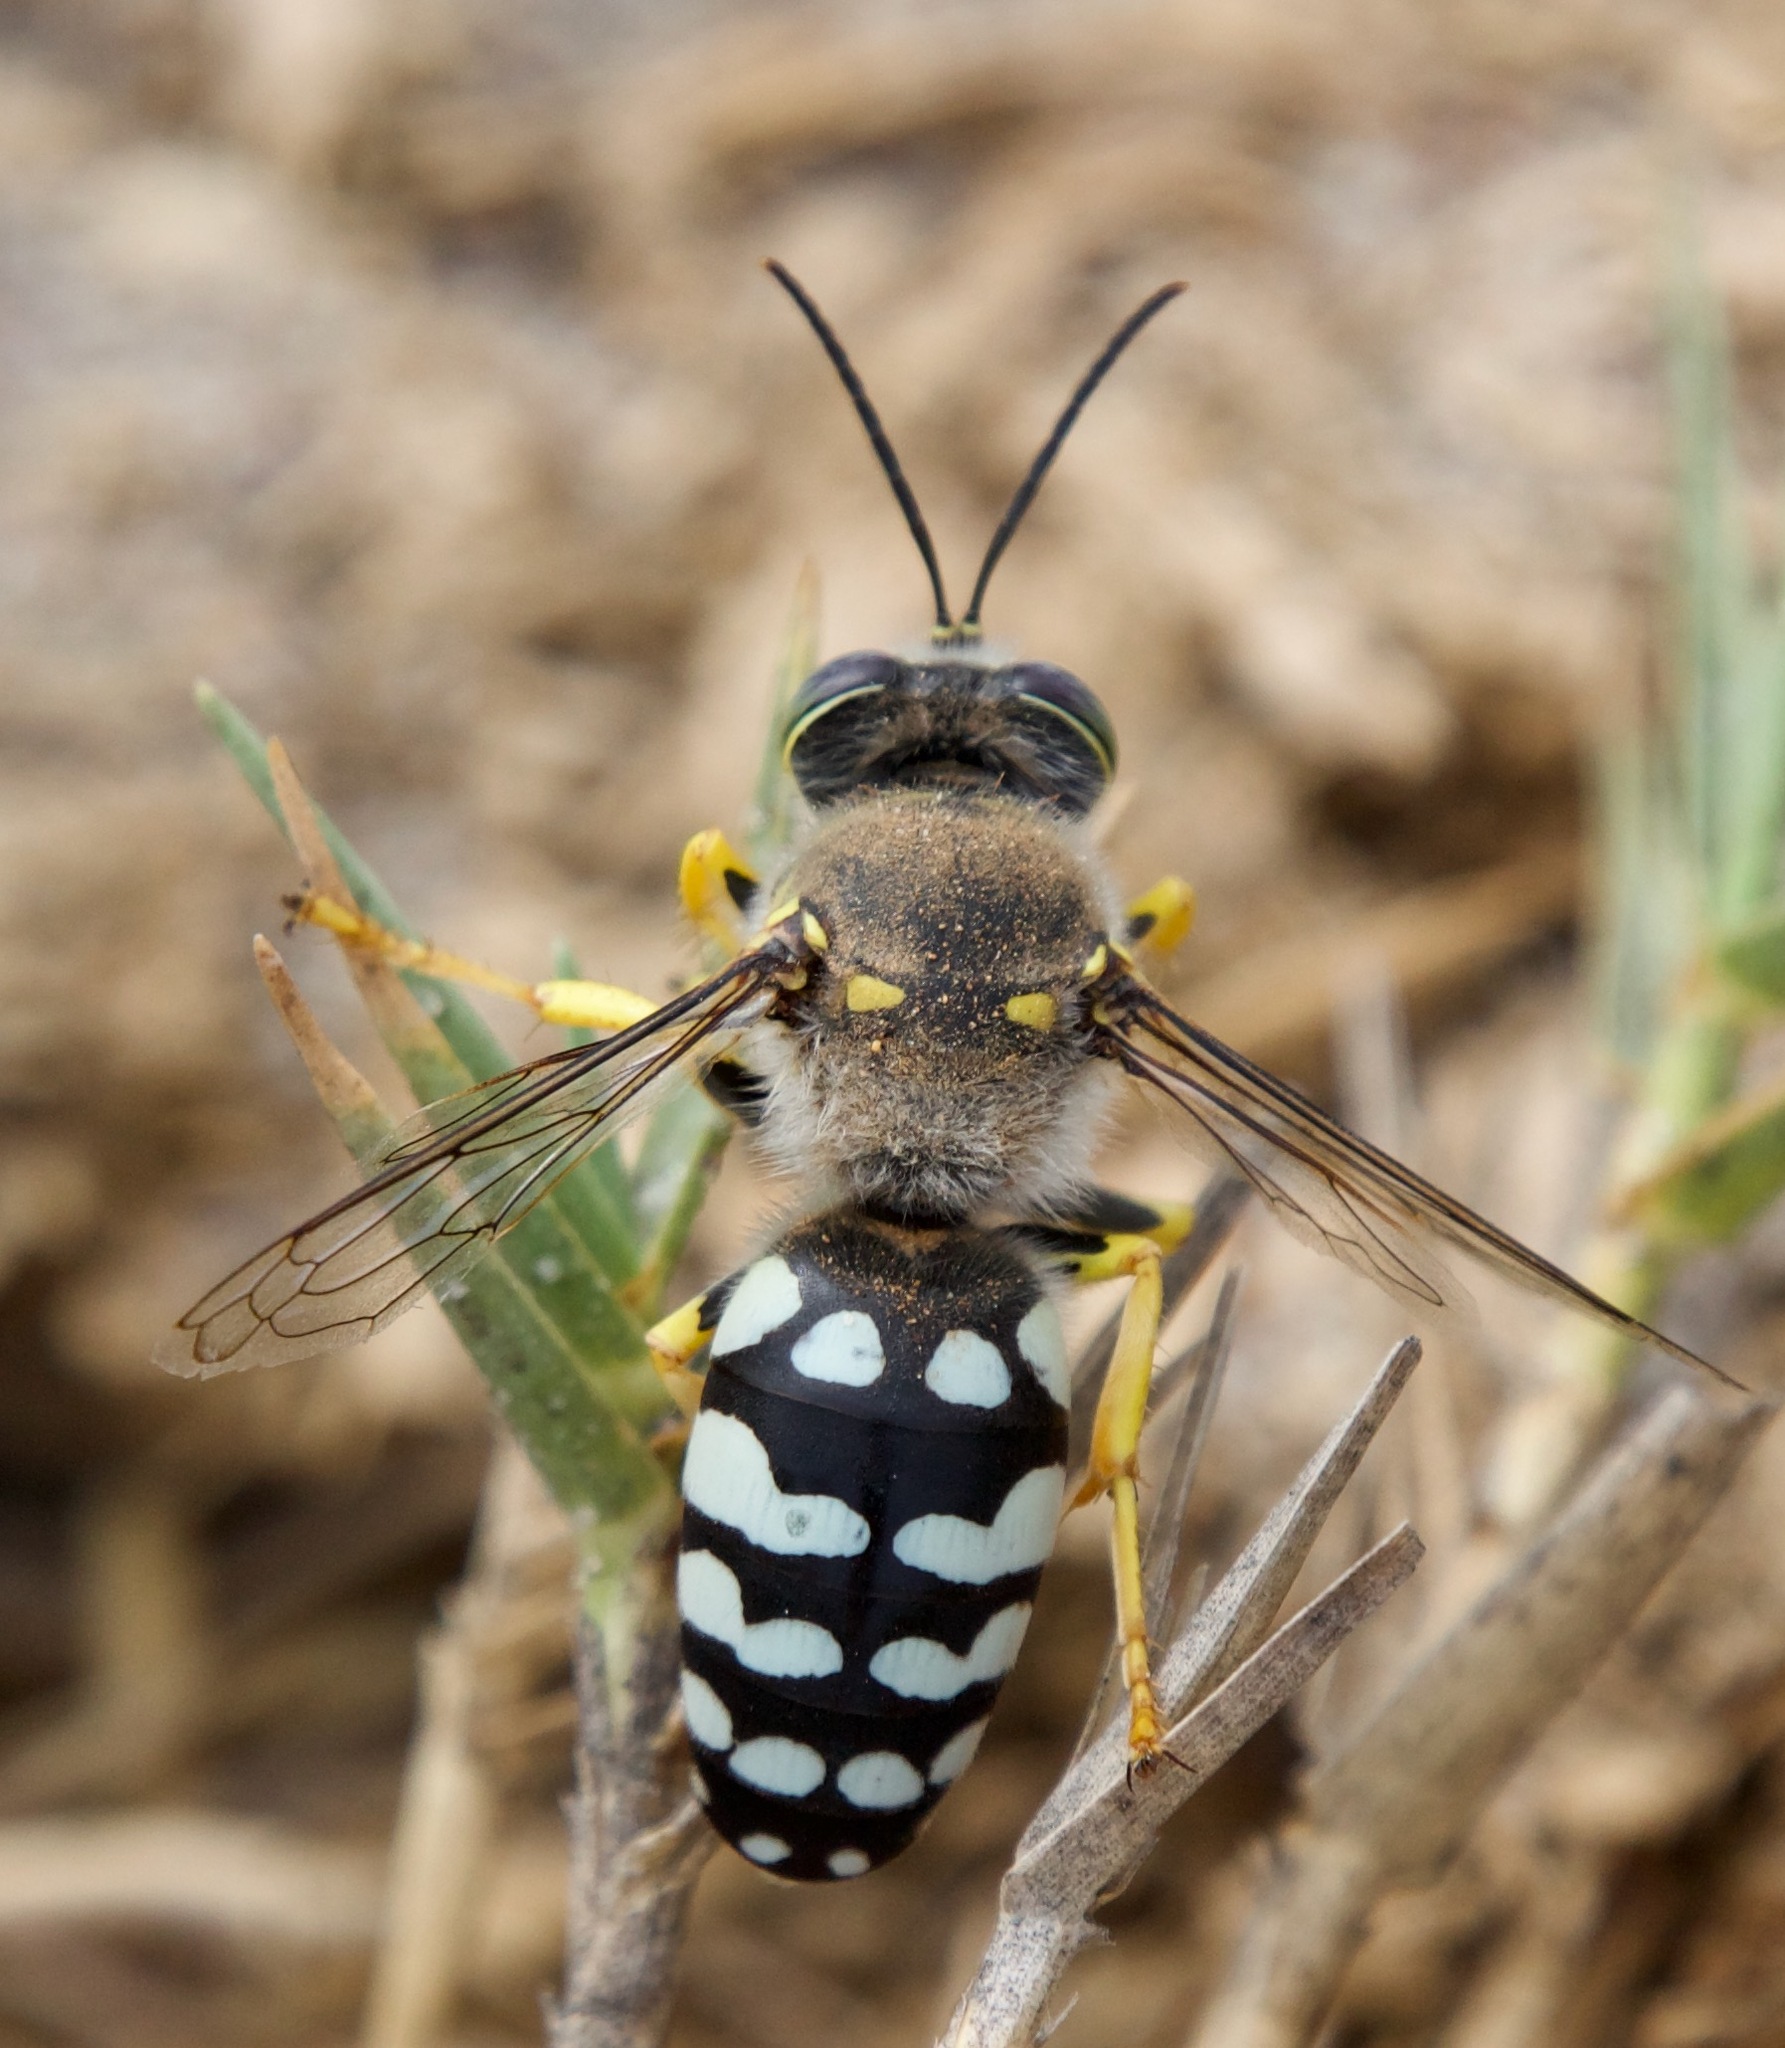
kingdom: Animalia
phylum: Arthropoda
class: Insecta
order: Hymenoptera
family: Crabronidae
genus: Zyzzyx
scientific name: Zyzzyx chilensis
